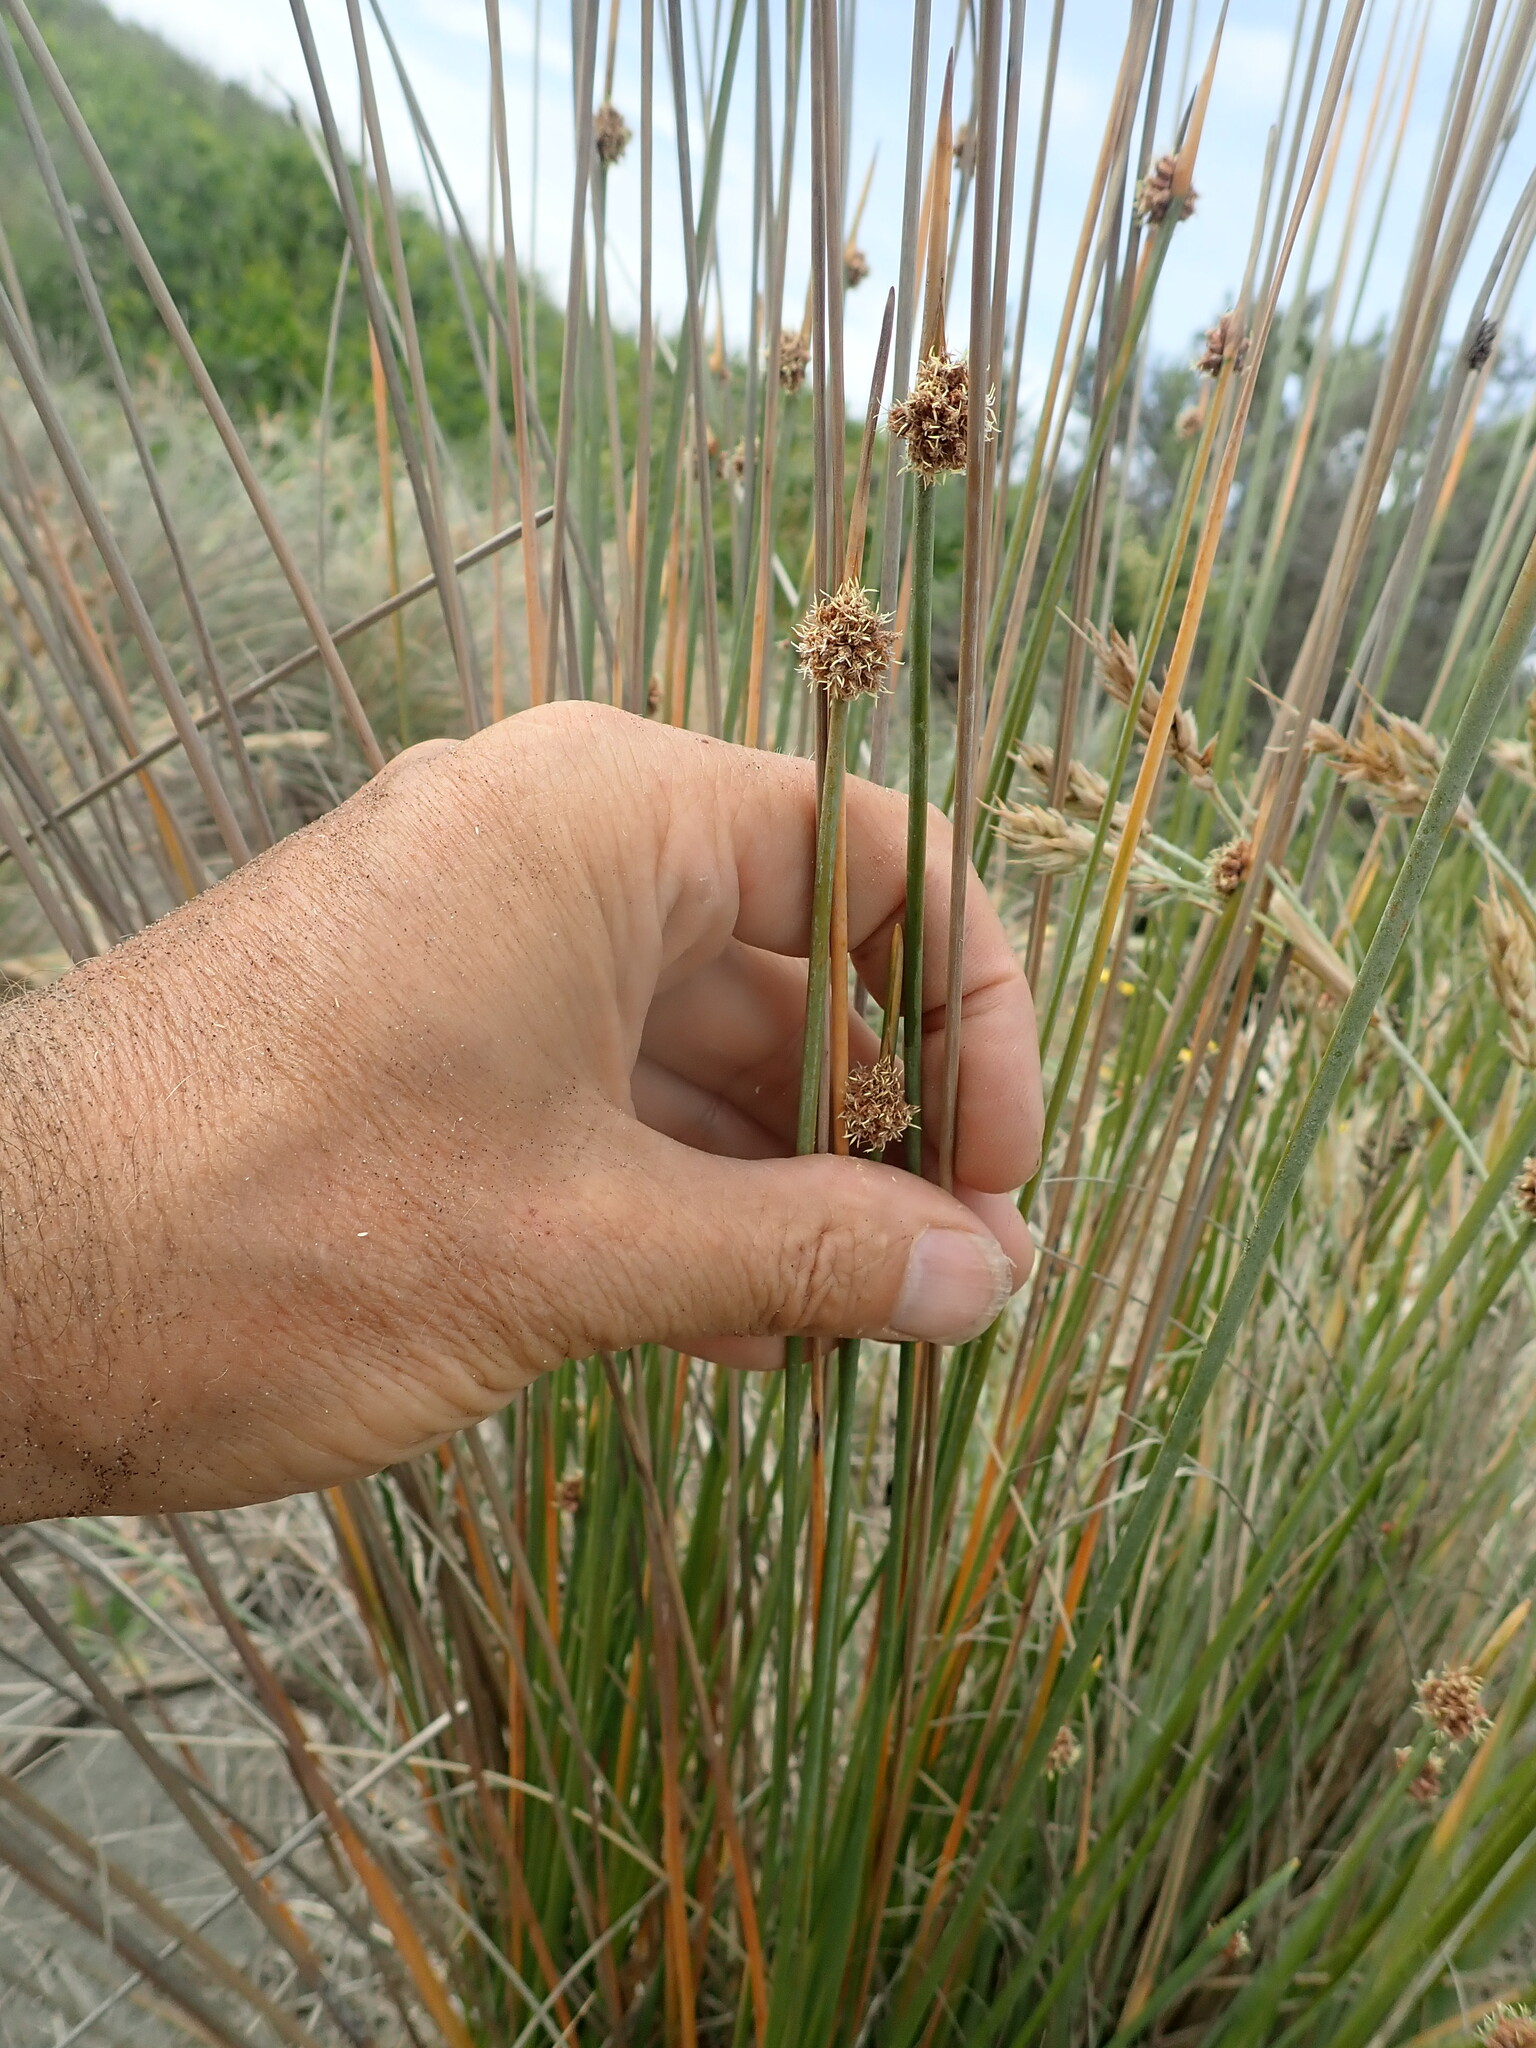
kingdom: Plantae
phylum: Tracheophyta
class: Liliopsida
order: Poales
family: Cyperaceae
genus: Ficinia
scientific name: Ficinia nodosa
